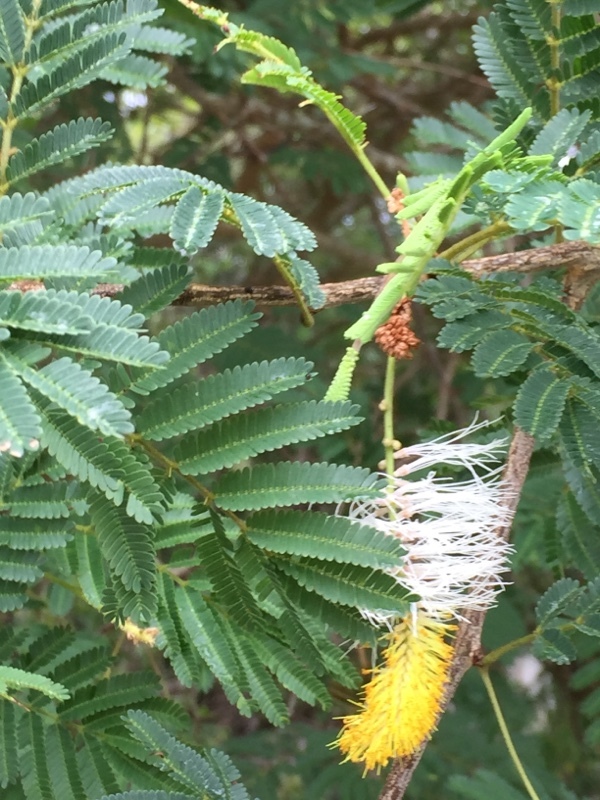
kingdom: Plantae
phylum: Tracheophyta
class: Magnoliopsida
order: Fabales
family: Fabaceae
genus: Dichrostachys
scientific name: Dichrostachys cinerea
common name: Sicklebush
